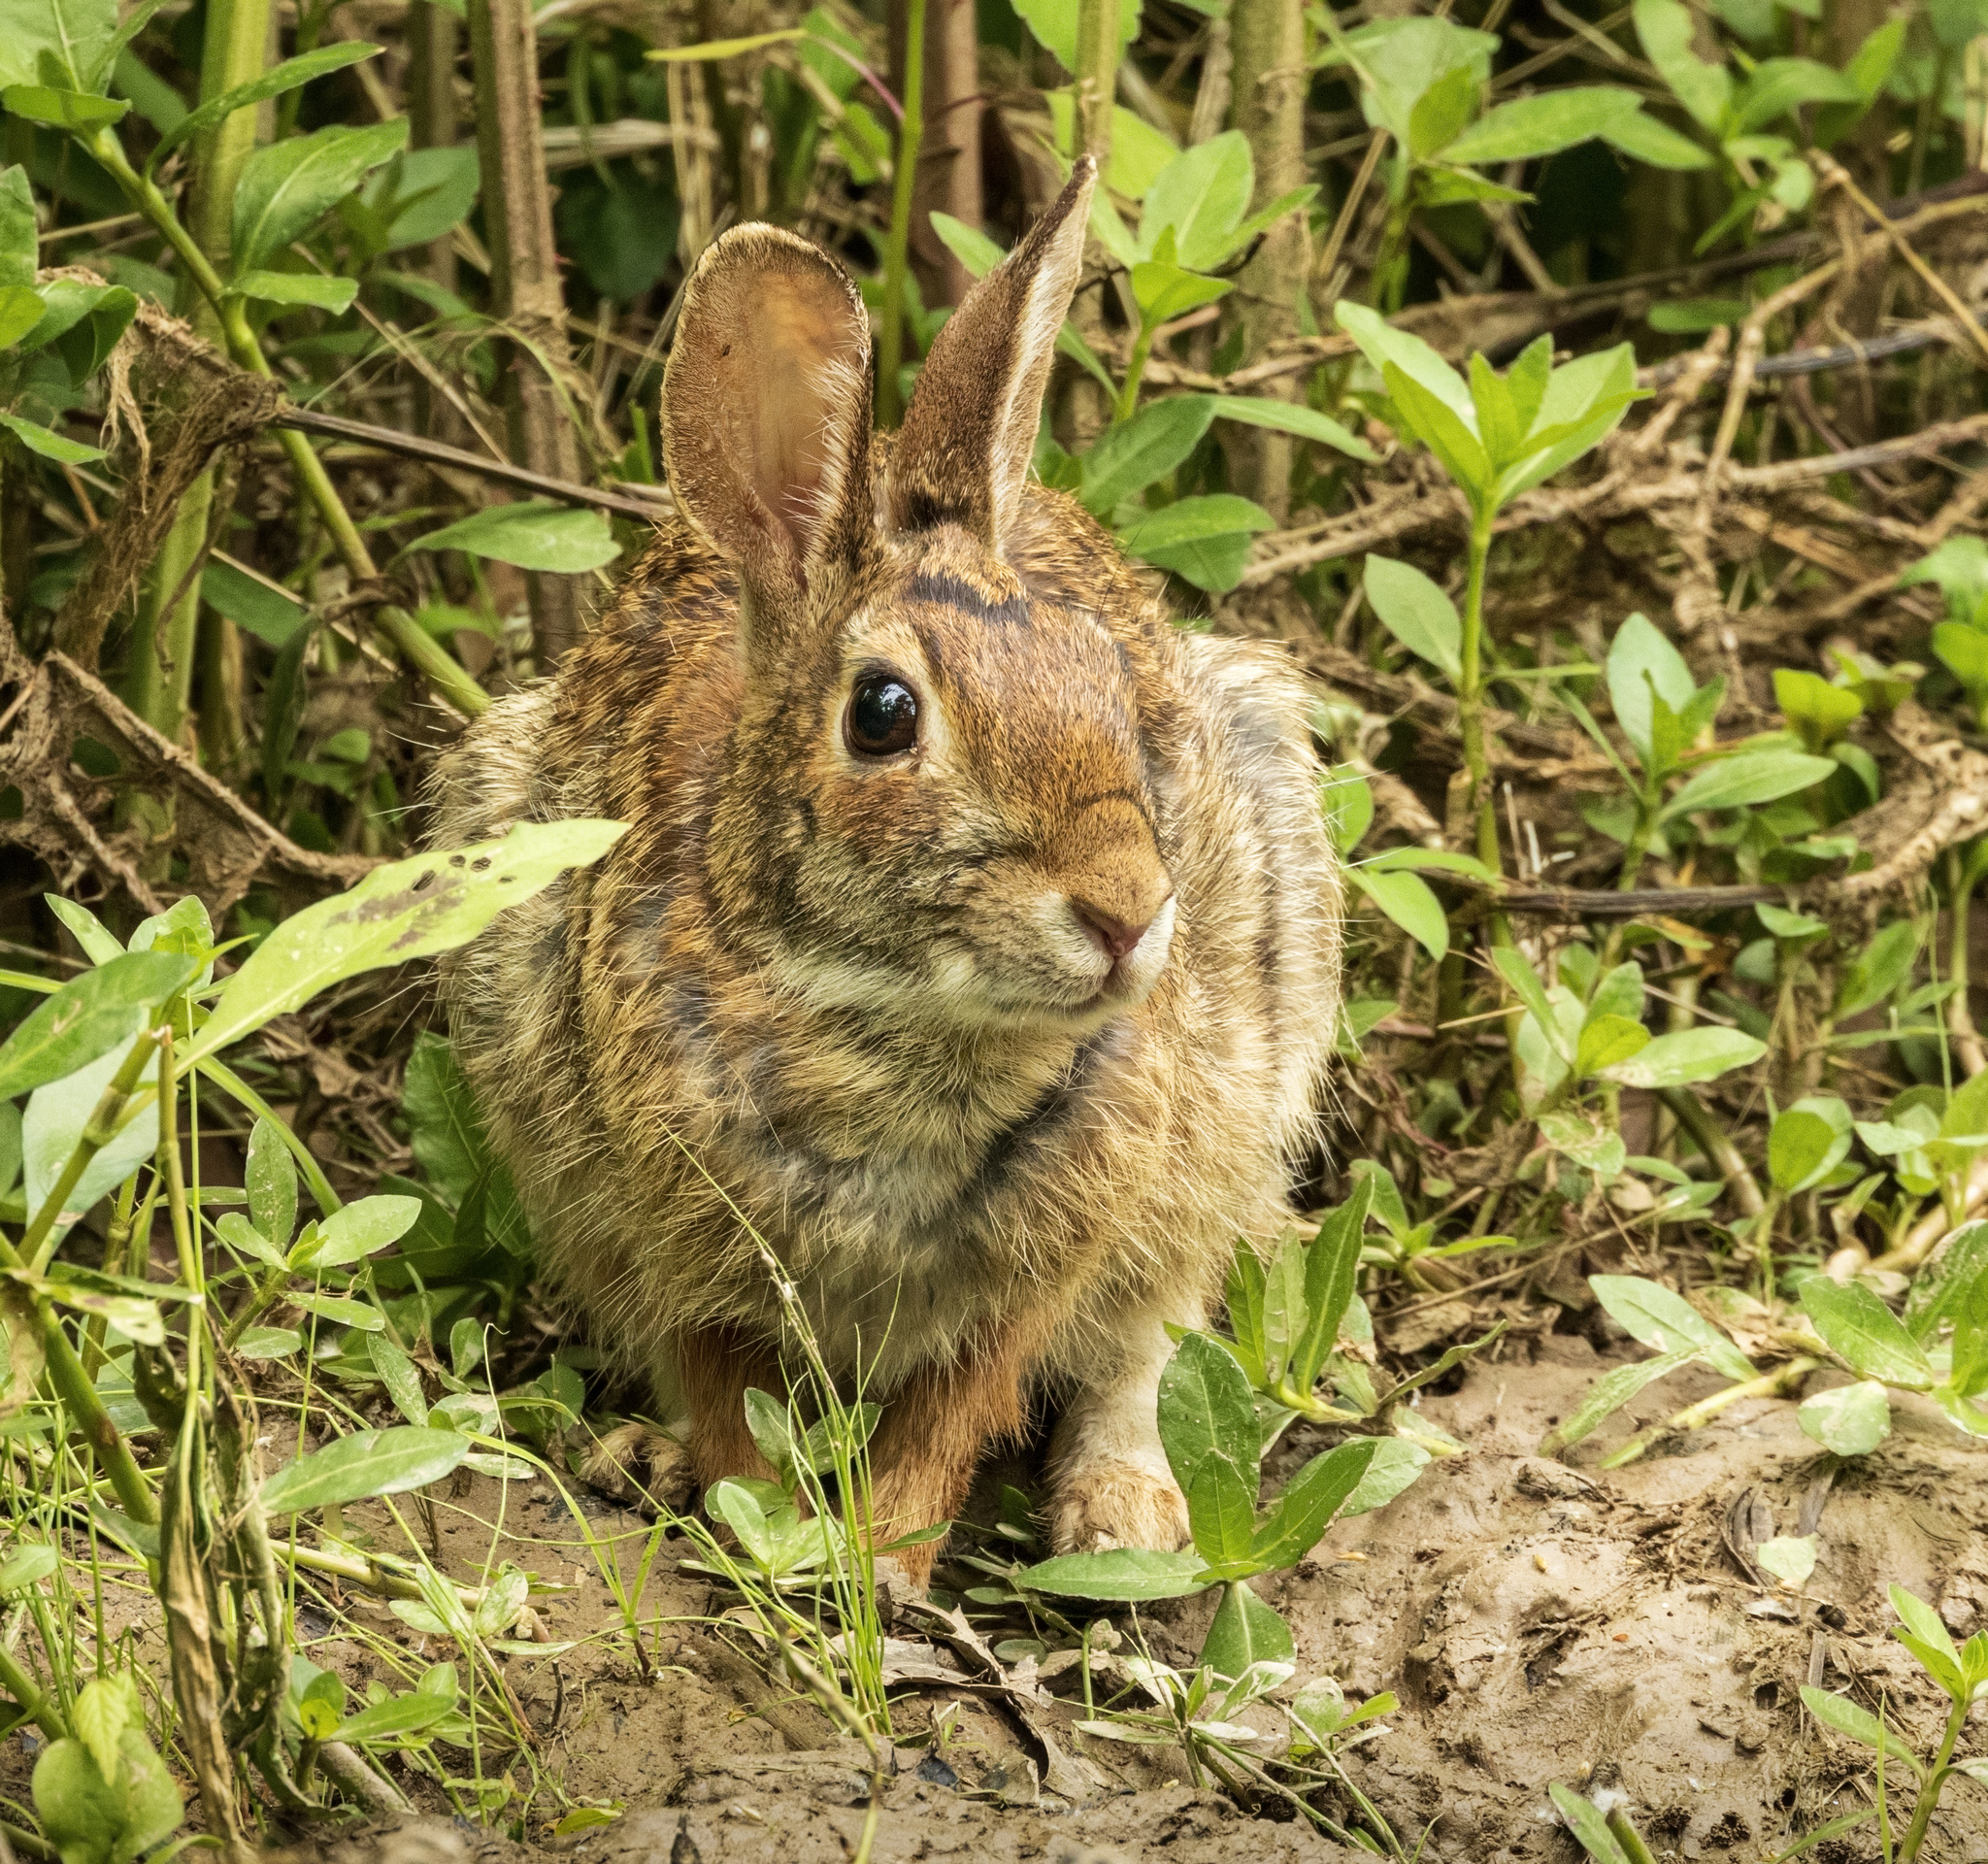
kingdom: Animalia
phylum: Chordata
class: Mammalia
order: Lagomorpha
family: Leporidae
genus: Sylvilagus
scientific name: Sylvilagus floridanus
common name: Eastern cottontail
